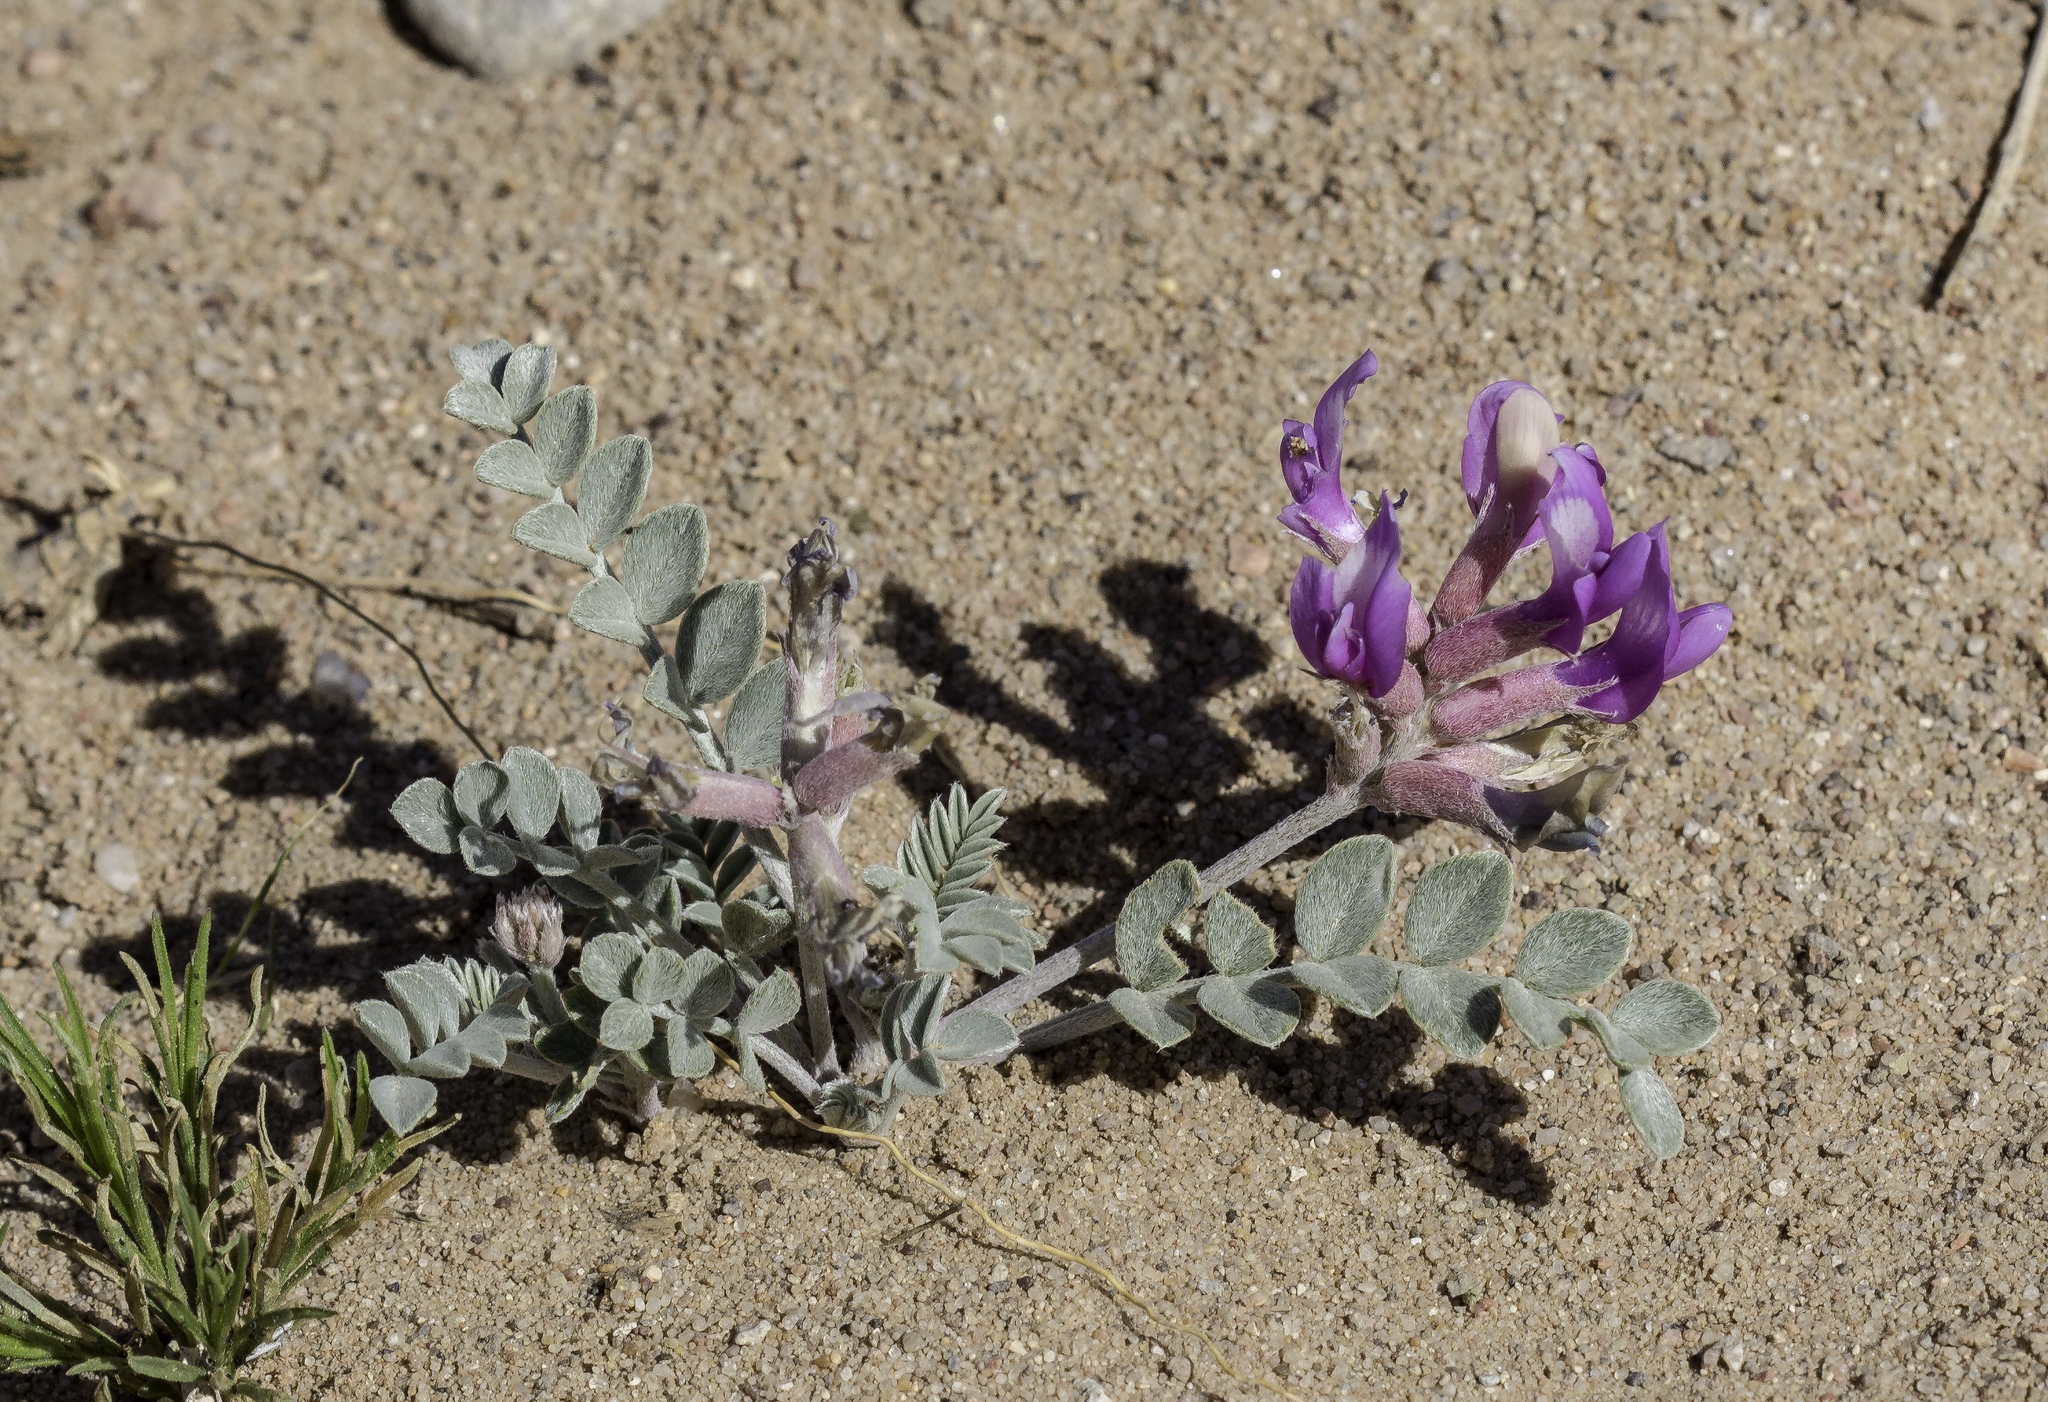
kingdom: Plantae
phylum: Tracheophyta
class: Magnoliopsida
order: Fabales
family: Fabaceae
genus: Astragalus
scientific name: Astragalus missouriensis
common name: Missouri milk-vetch
